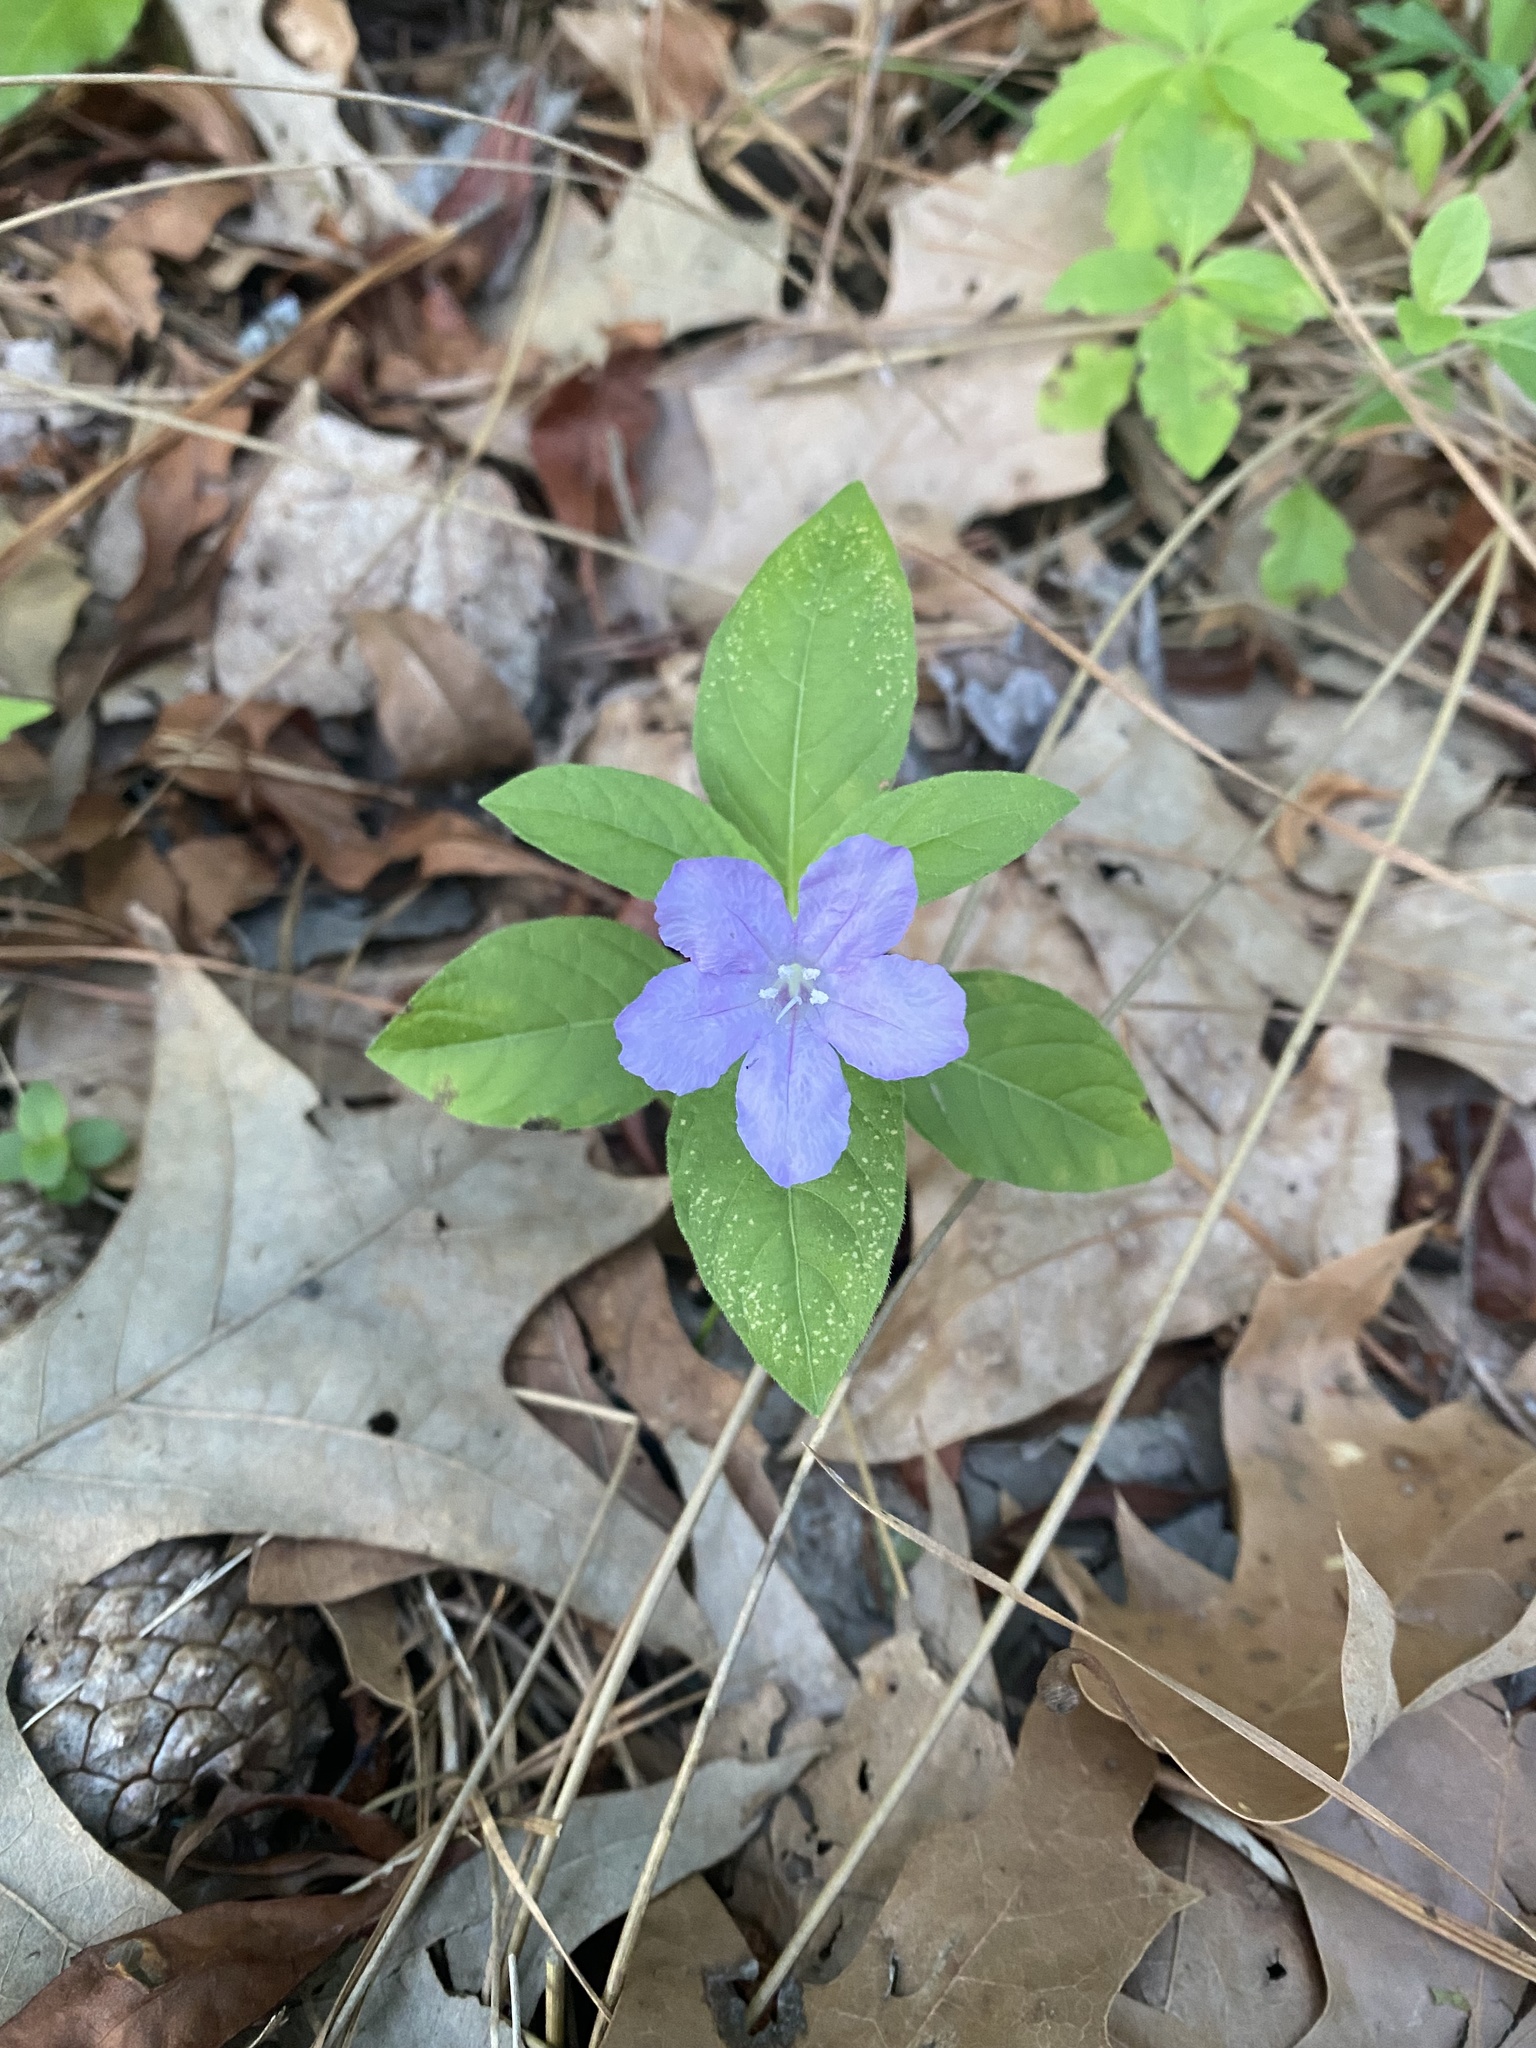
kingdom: Plantae
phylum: Tracheophyta
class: Magnoliopsida
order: Lamiales
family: Acanthaceae
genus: Ruellia
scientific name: Ruellia caroliniensis
